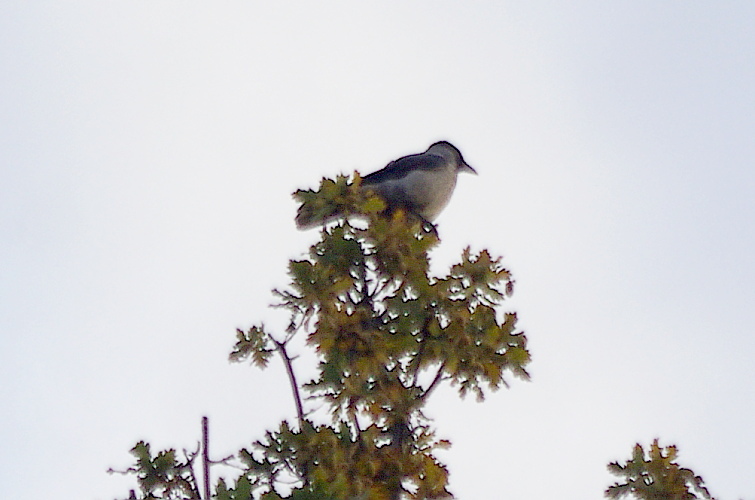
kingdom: Animalia
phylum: Chordata
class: Aves
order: Passeriformes
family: Corvidae
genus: Corvus
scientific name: Corvus cornix
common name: Hooded crow
